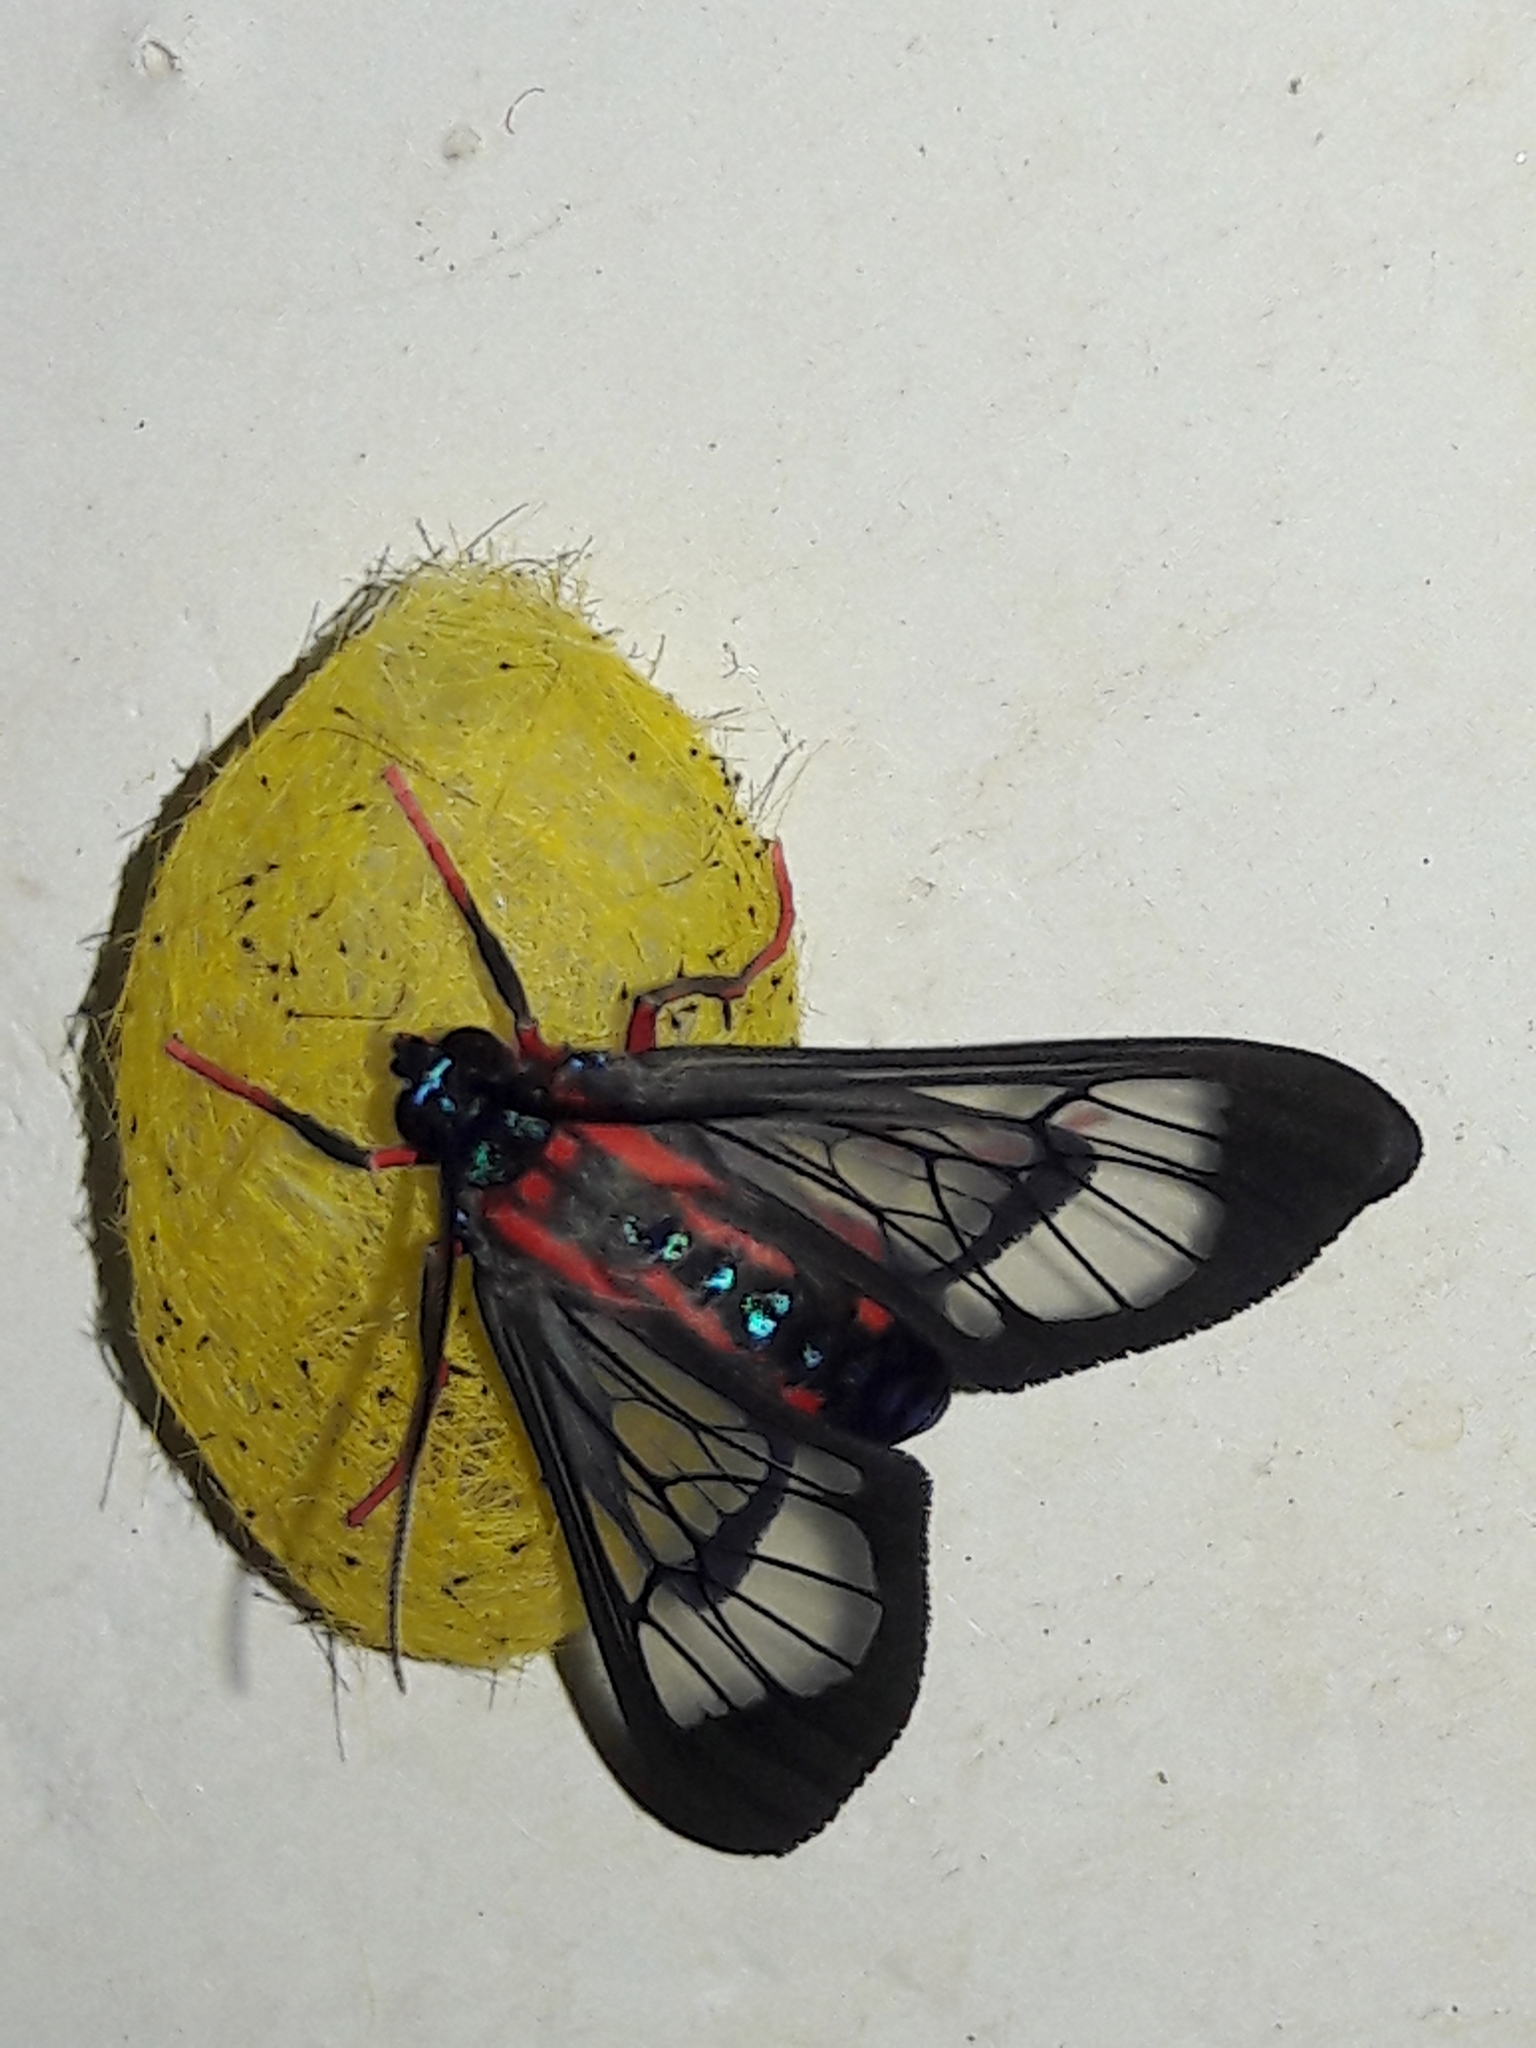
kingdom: Animalia
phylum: Arthropoda
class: Insecta
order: Lepidoptera
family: Erebidae
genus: Cosmosoma
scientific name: Cosmosoma auge
